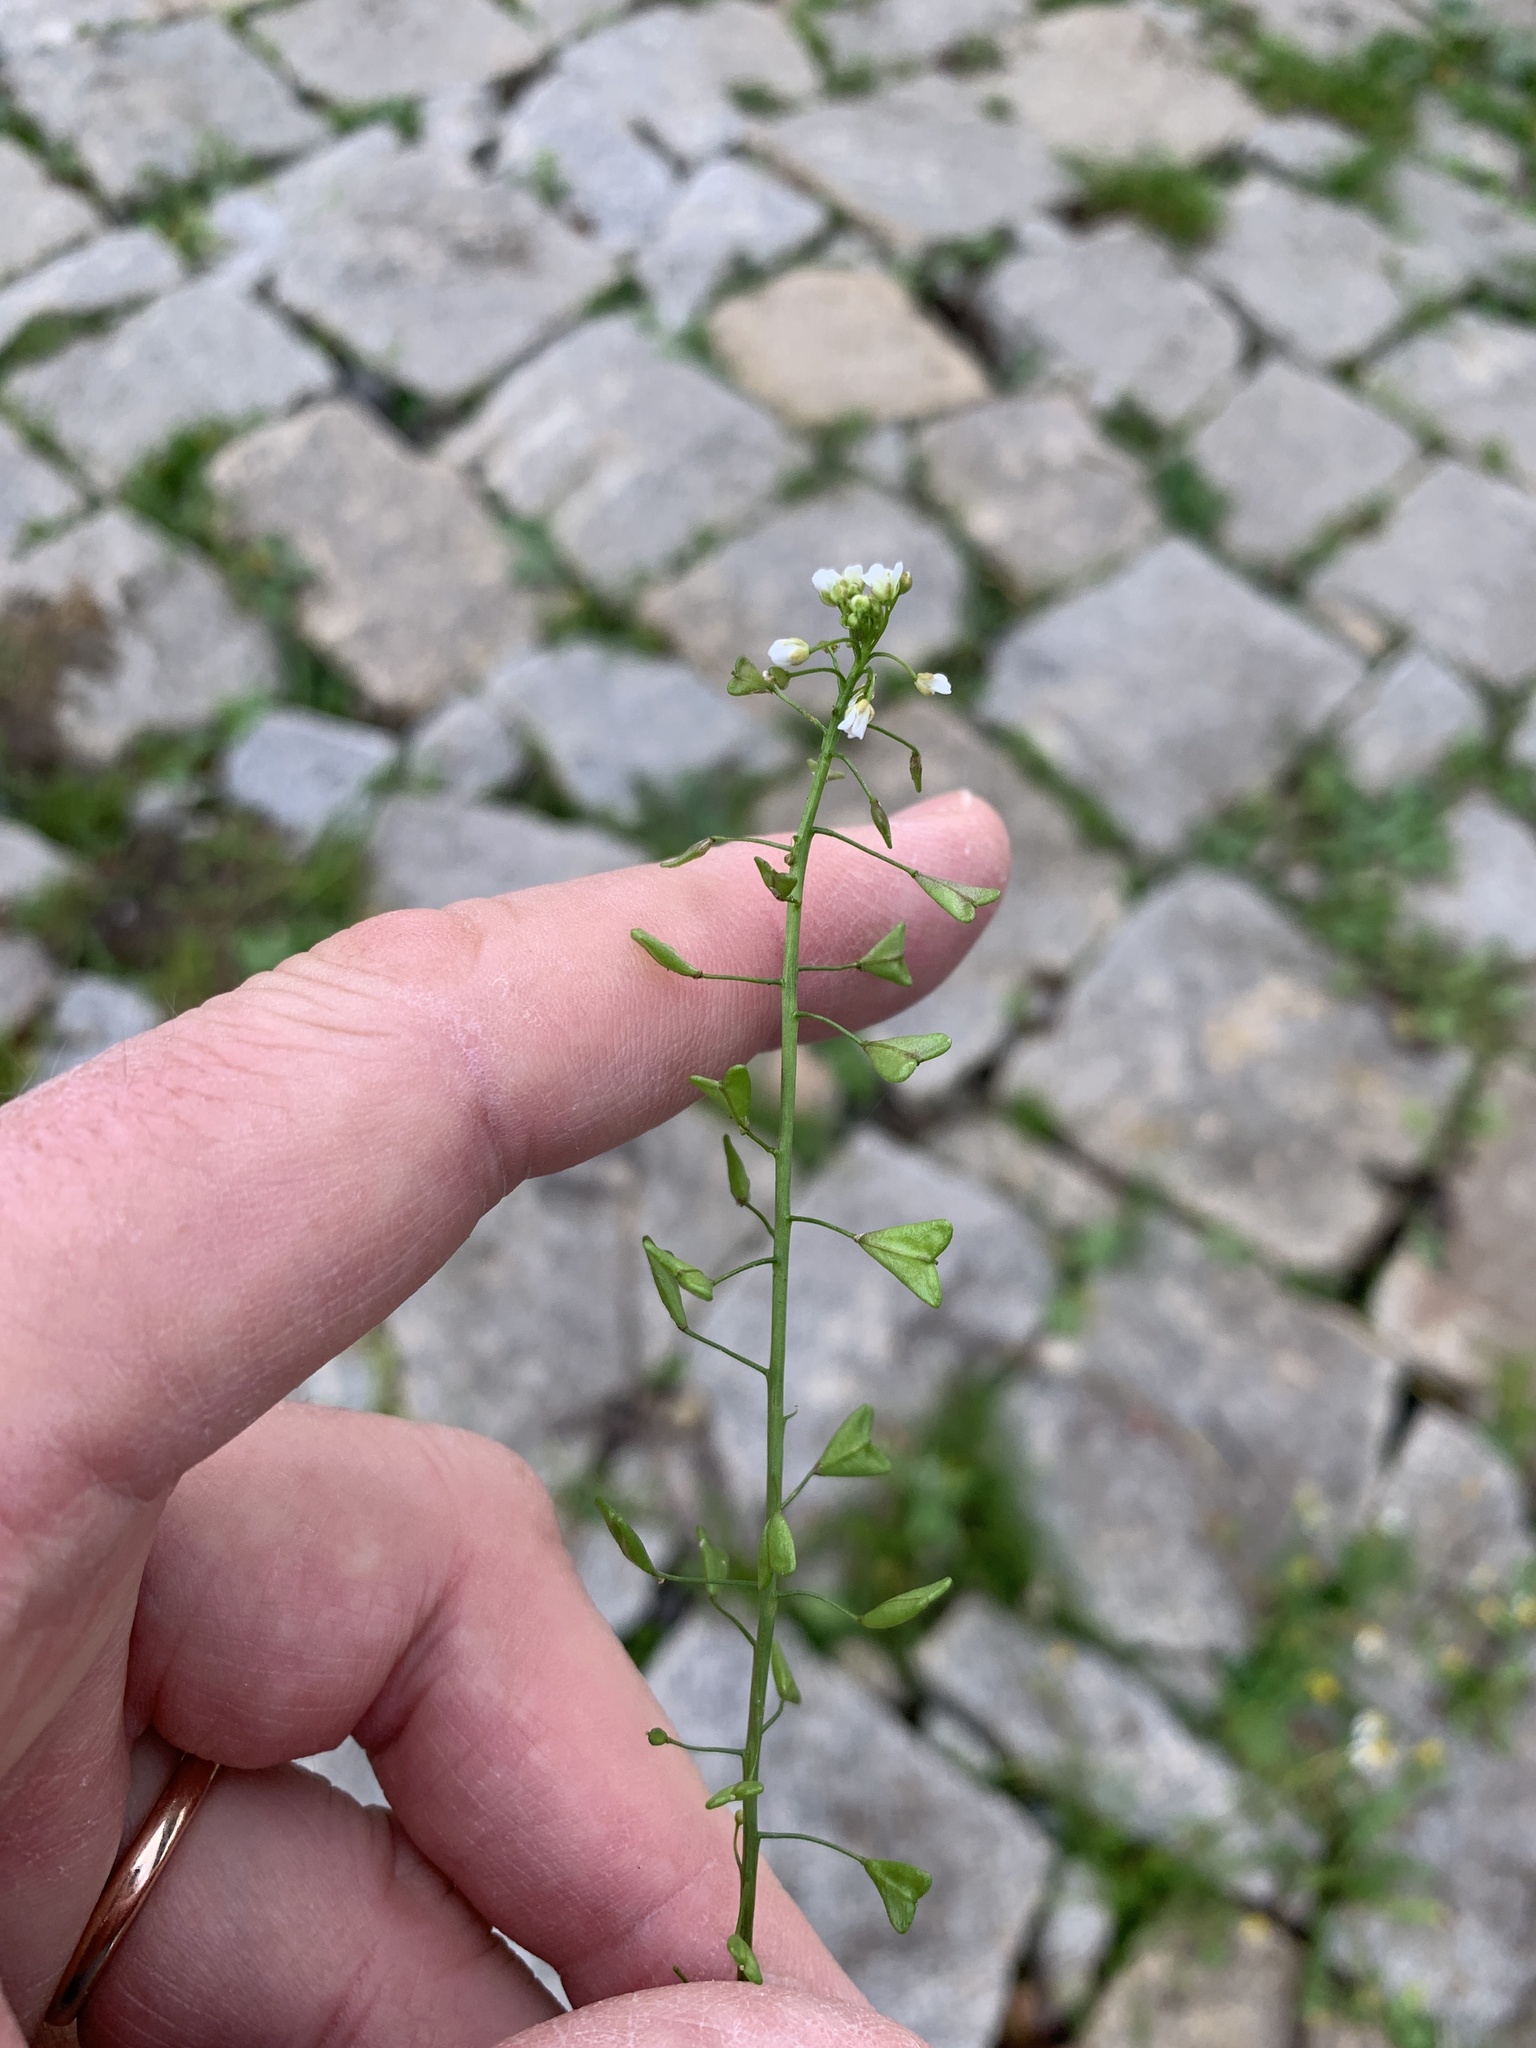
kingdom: Plantae
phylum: Tracheophyta
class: Magnoliopsida
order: Brassicales
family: Brassicaceae
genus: Capsella
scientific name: Capsella bursa-pastoris
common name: Shepherd's purse
